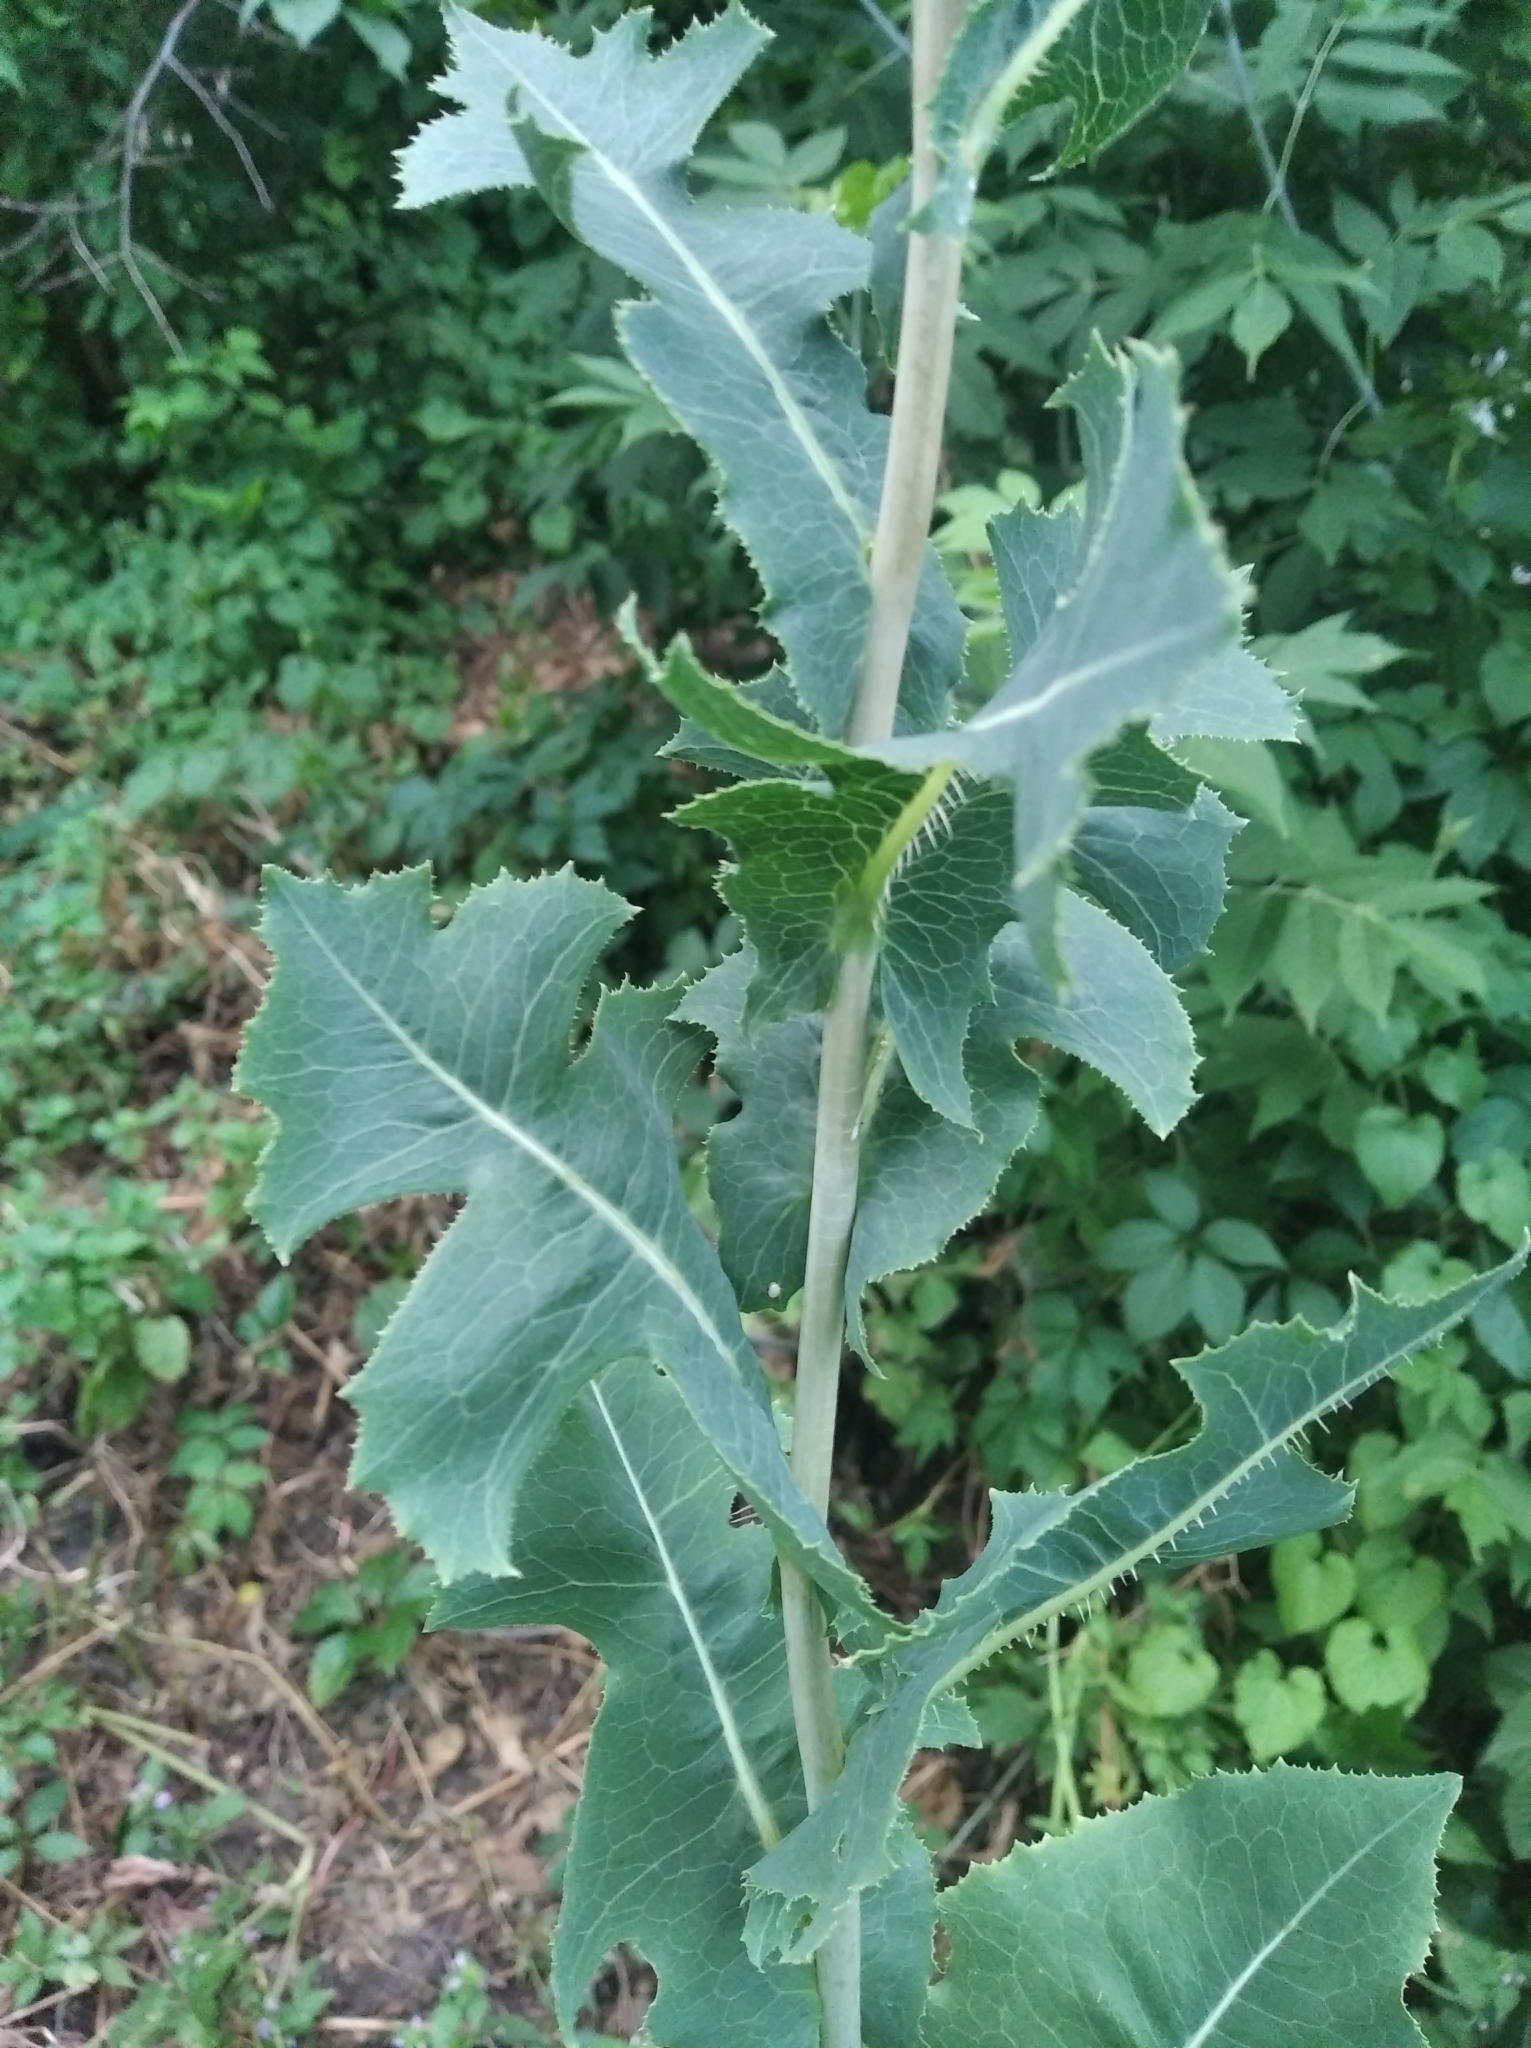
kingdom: Plantae
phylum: Tracheophyta
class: Magnoliopsida
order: Asterales
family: Asteraceae
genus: Lactuca
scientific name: Lactuca serriola
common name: Prickly lettuce
